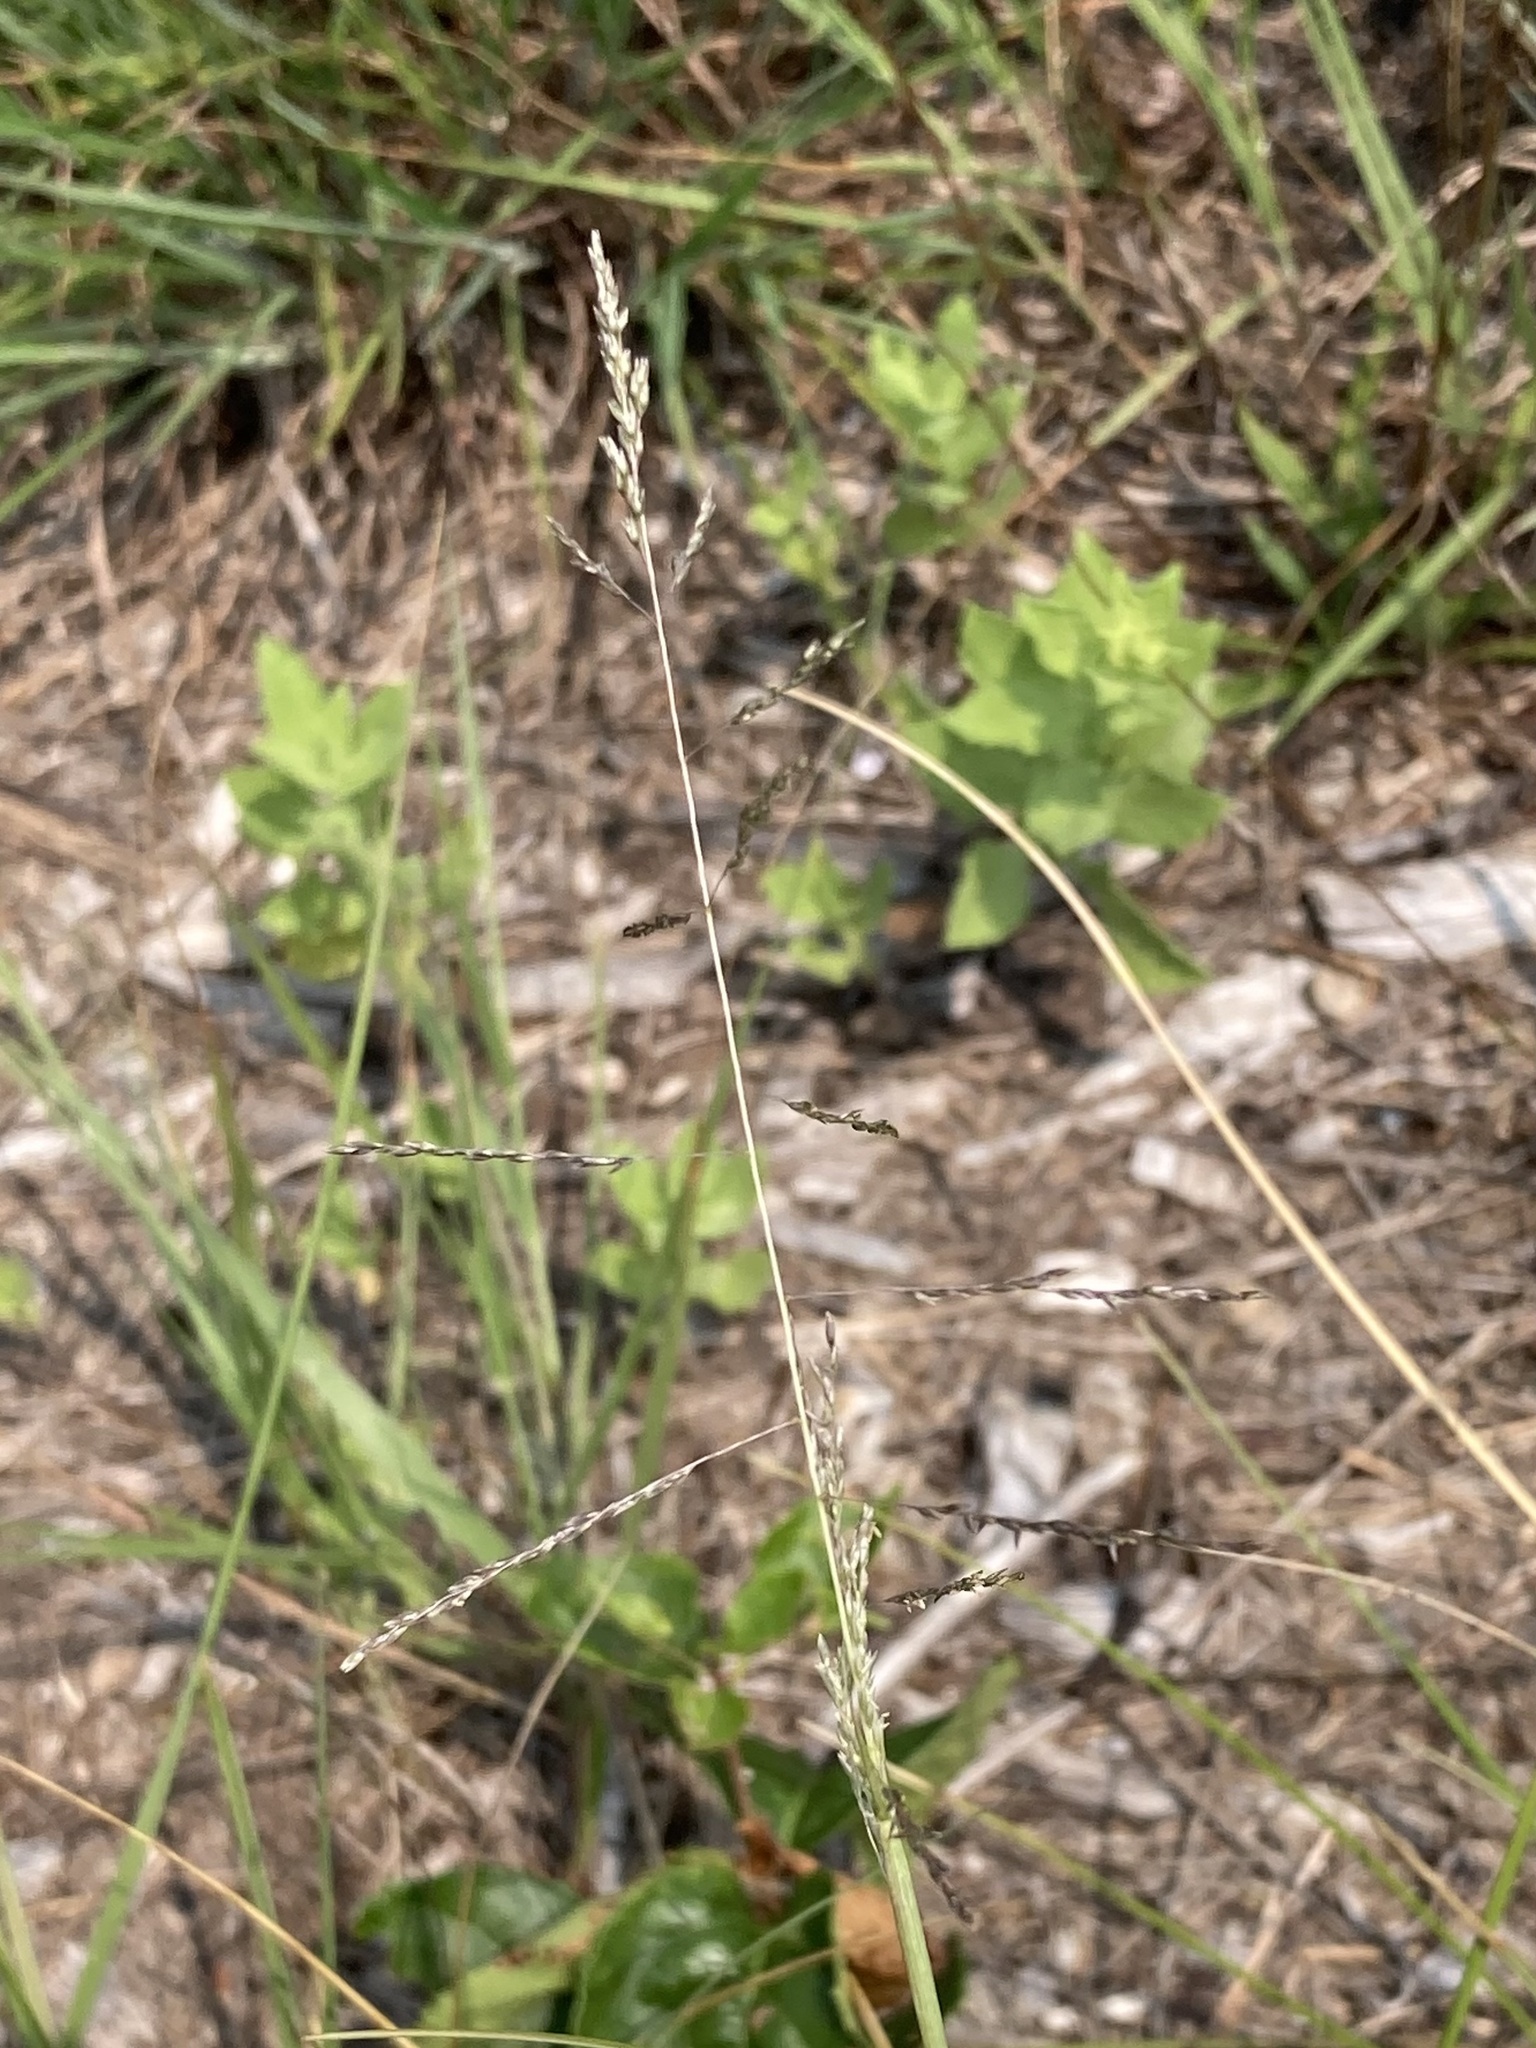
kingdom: Plantae
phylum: Tracheophyta
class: Liliopsida
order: Poales
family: Poaceae
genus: Sporobolus
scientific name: Sporobolus cryptandrus
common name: Sand dropseed
